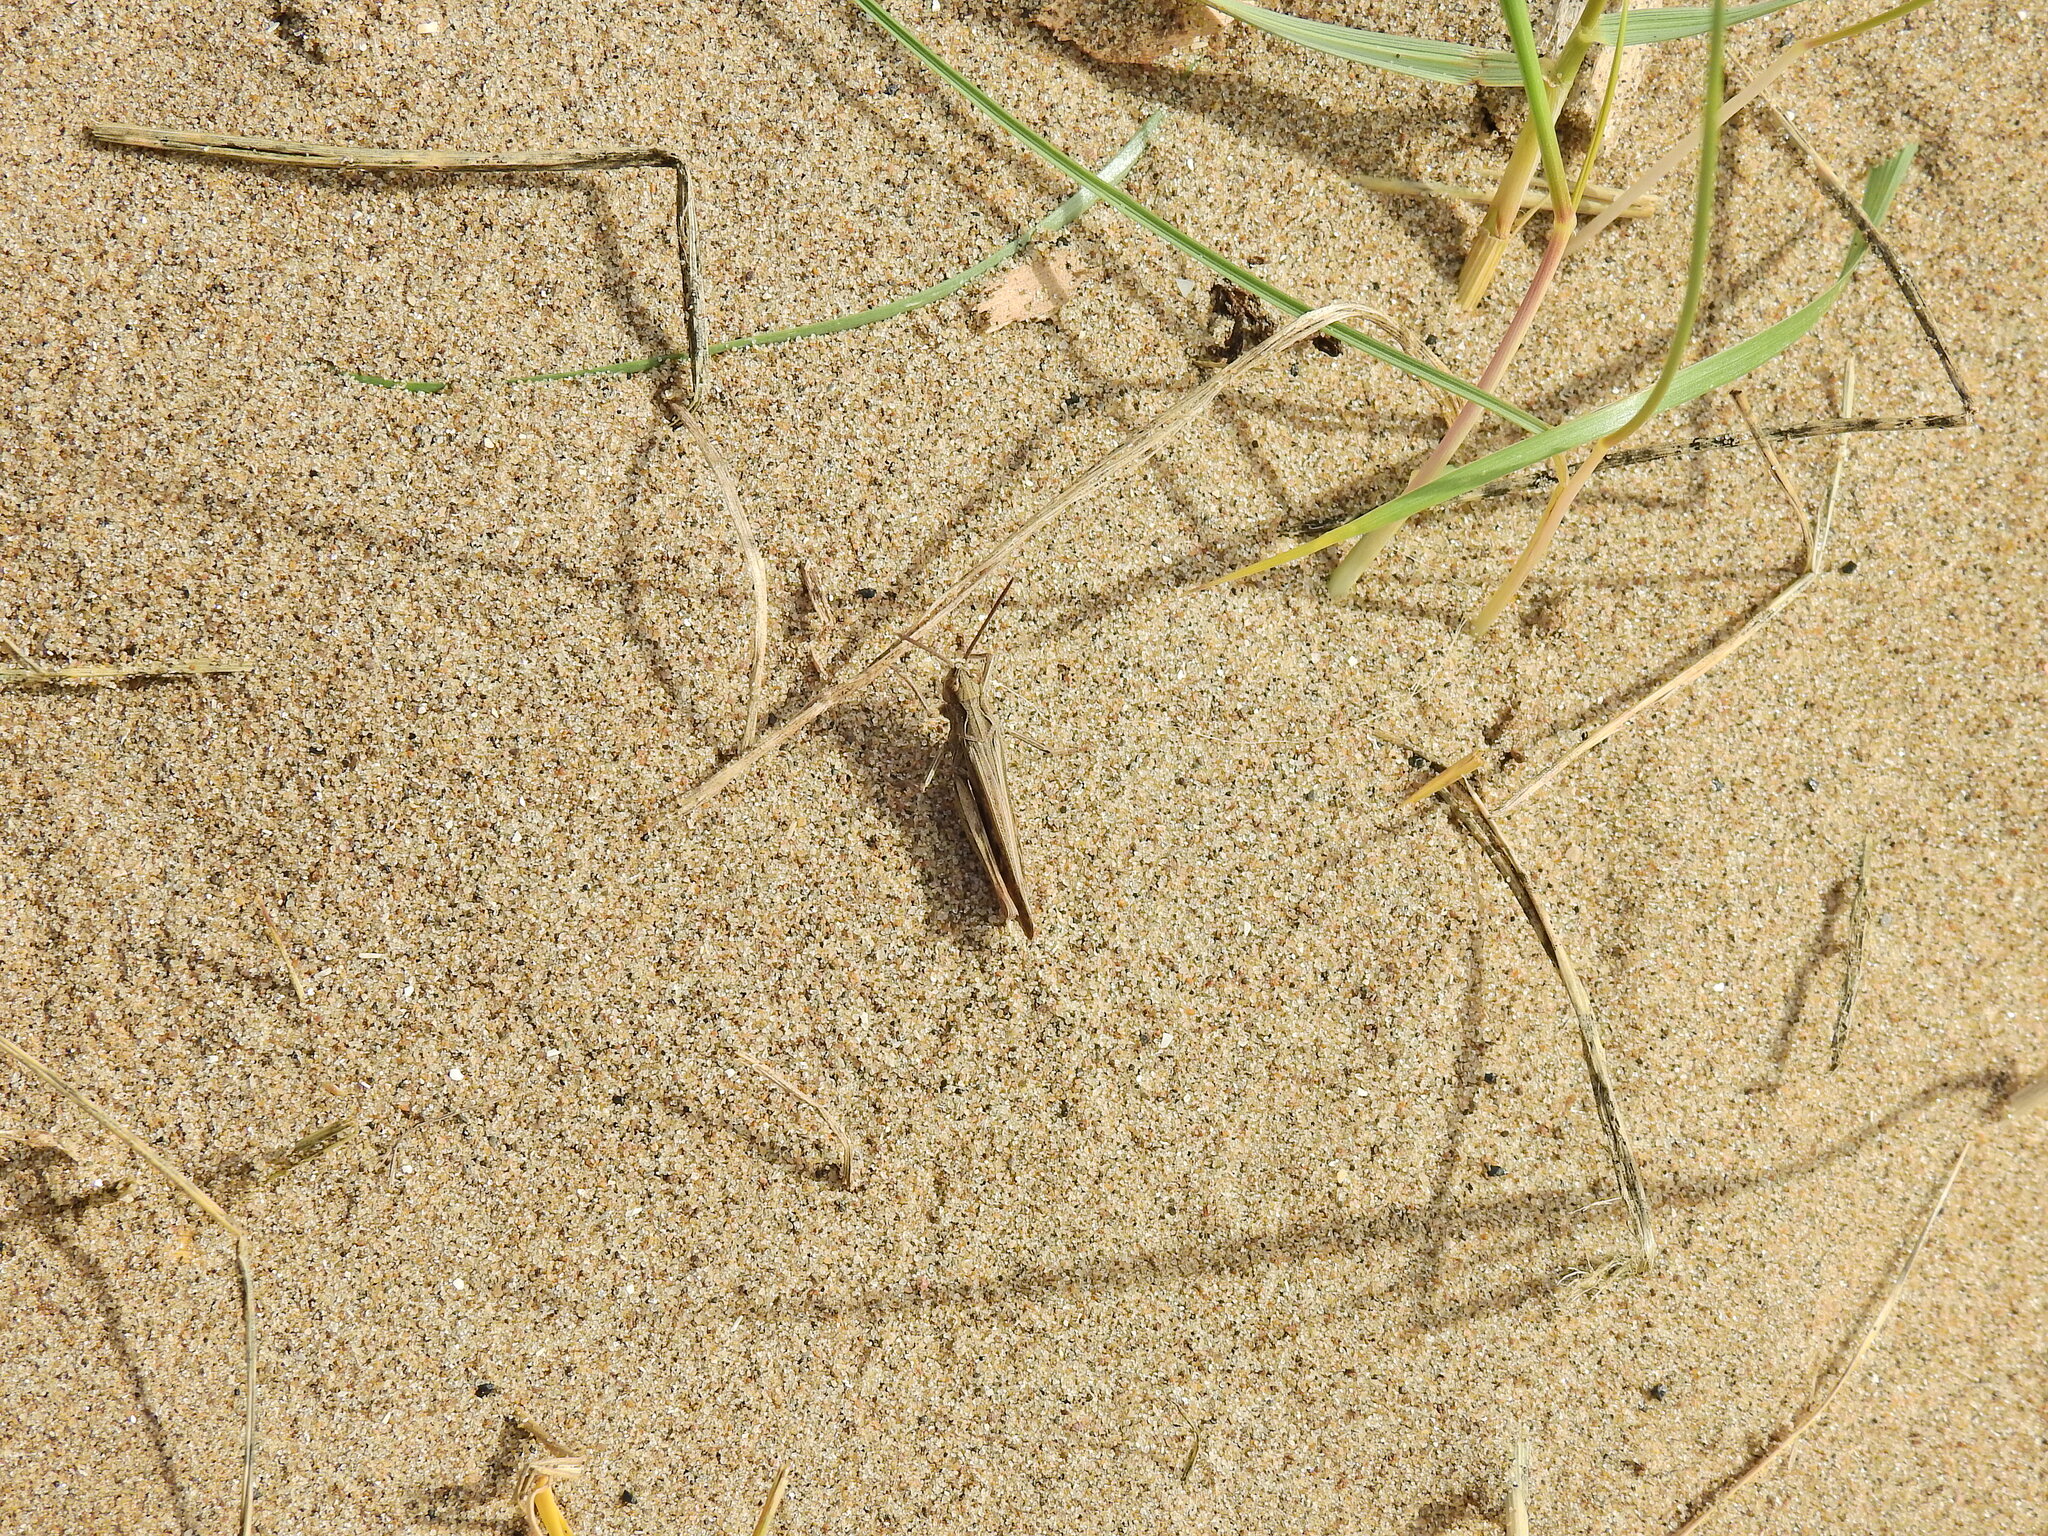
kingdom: Animalia
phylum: Arthropoda
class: Insecta
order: Orthoptera
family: Acrididae
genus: Chorthippus
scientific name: Chorthippus brunneus
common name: Field grasshopper
